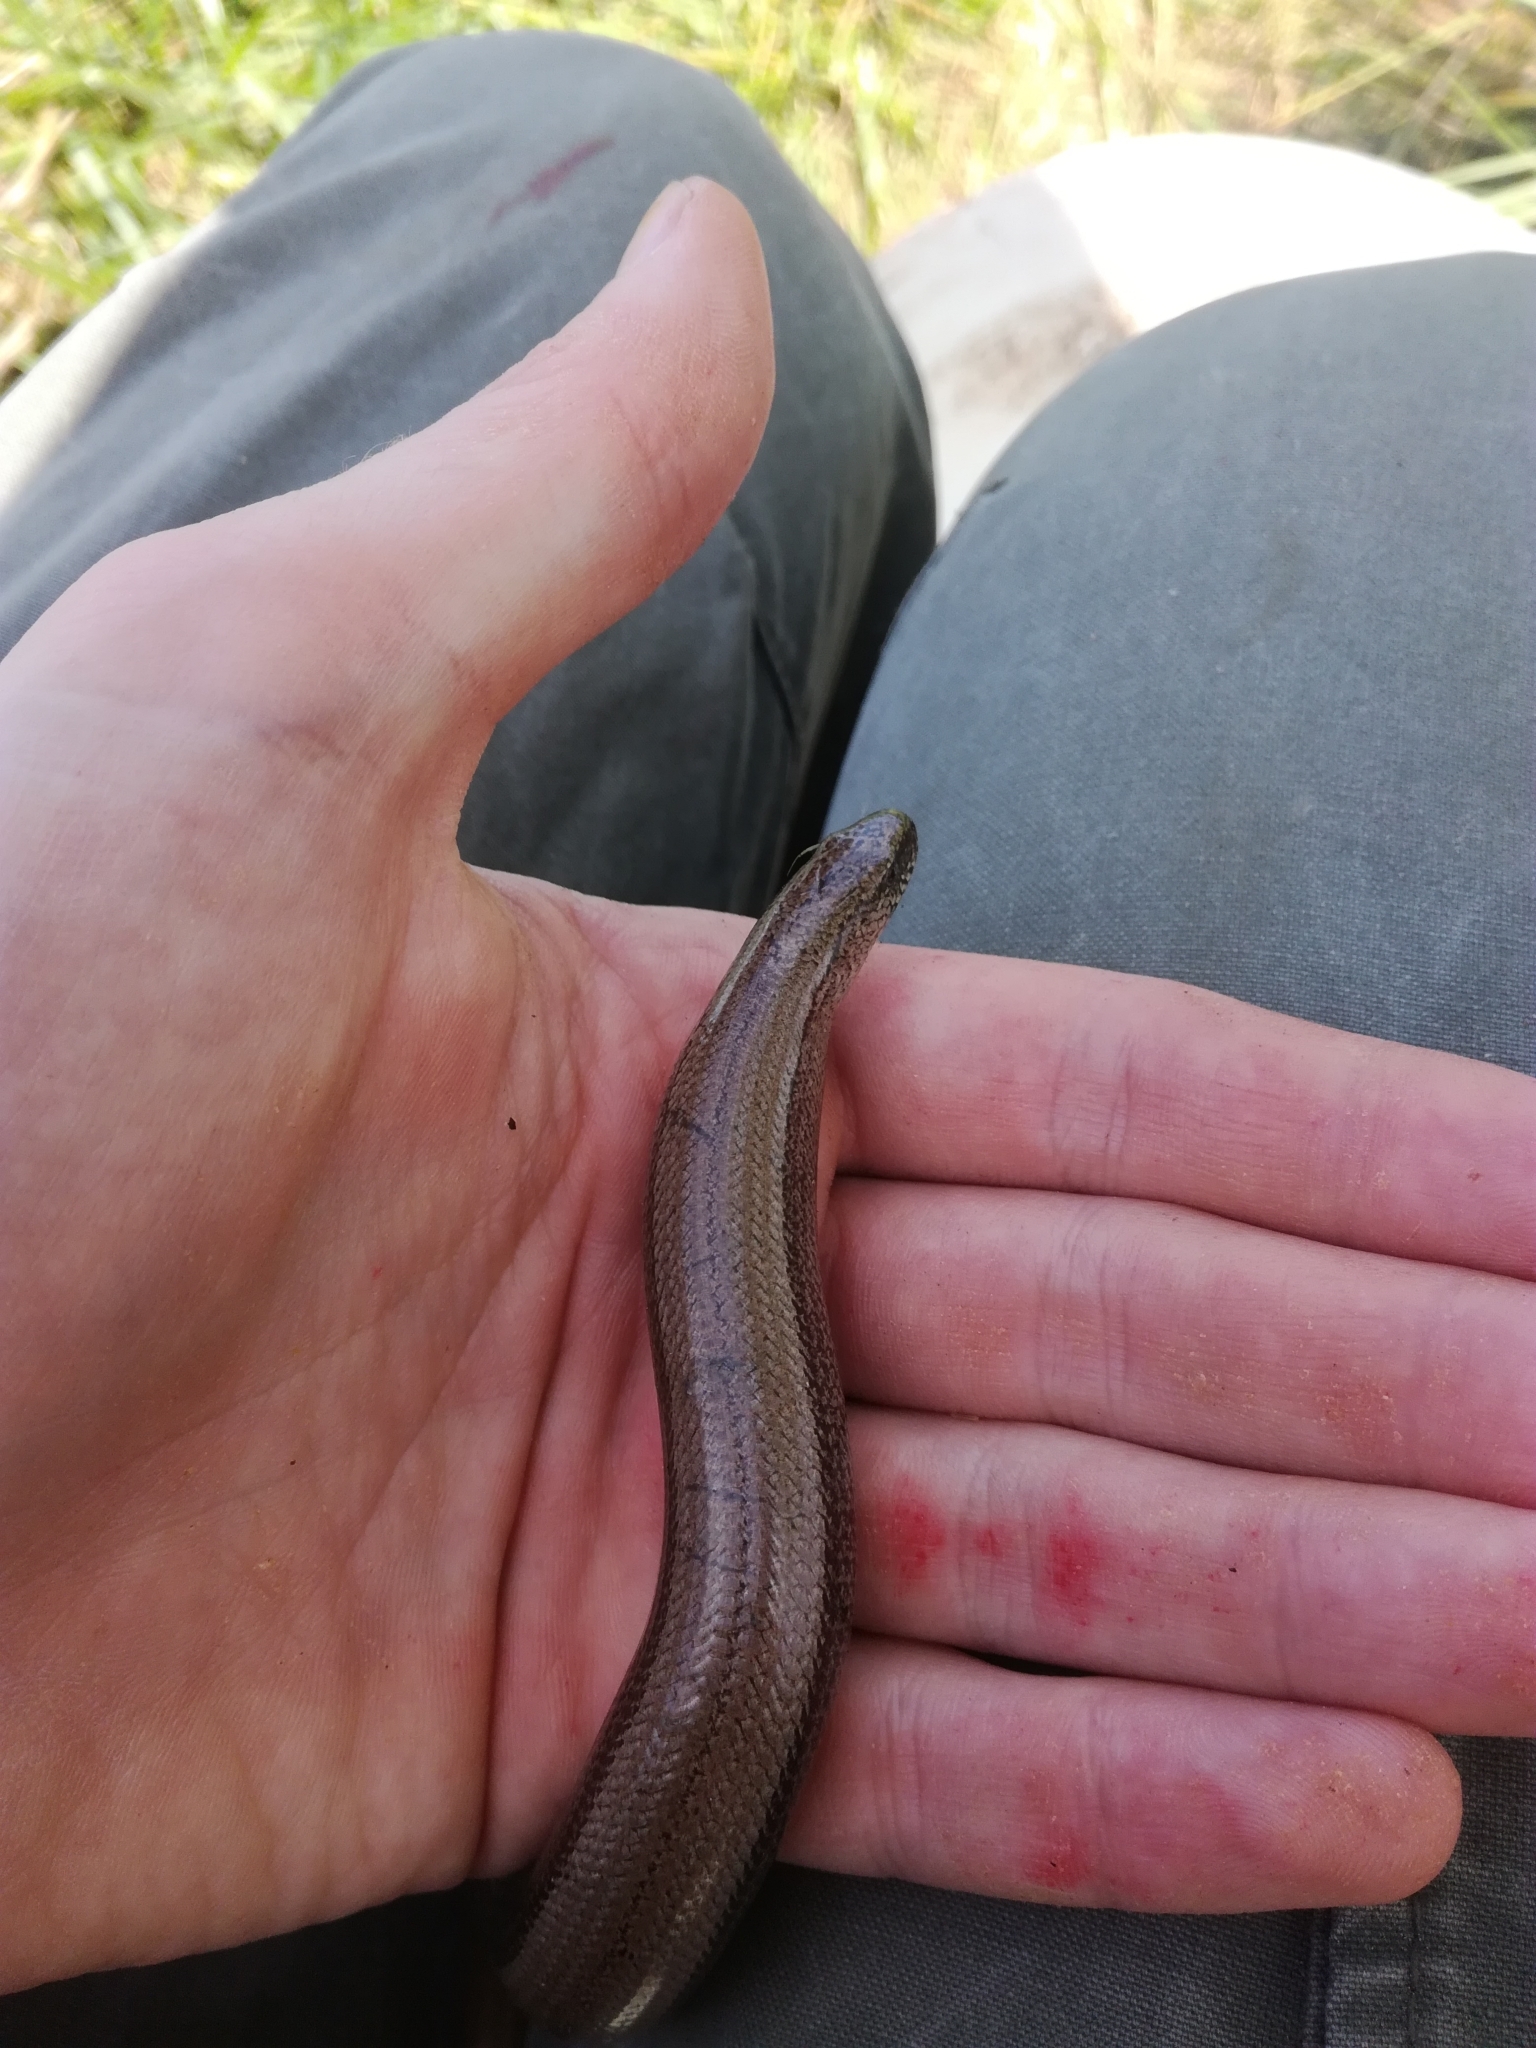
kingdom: Animalia
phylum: Chordata
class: Squamata
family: Anguidae
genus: Anguis
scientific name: Anguis fragilis
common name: Slow worm
